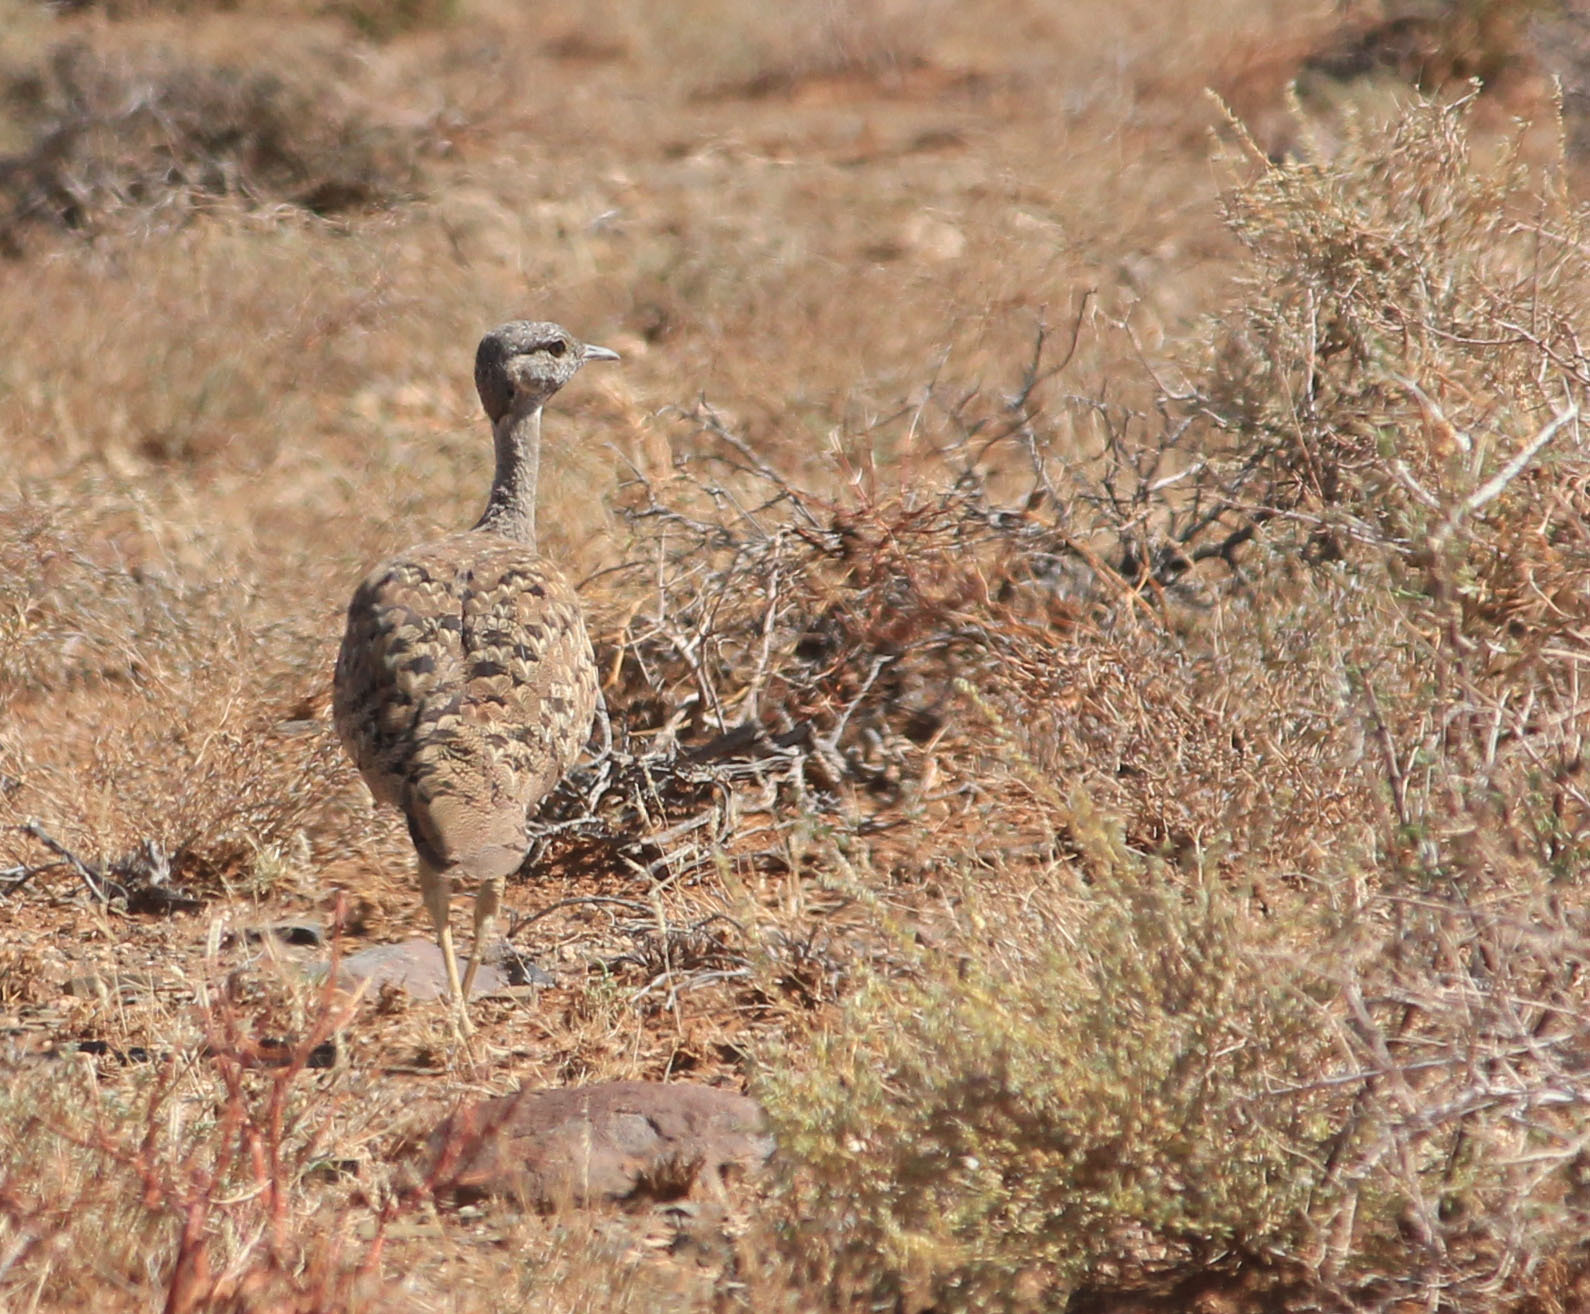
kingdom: Animalia
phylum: Chordata
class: Aves
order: Otidiformes
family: Otididae
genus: Eupodotis
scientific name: Eupodotis vigorsii
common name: Karoo korhaan
